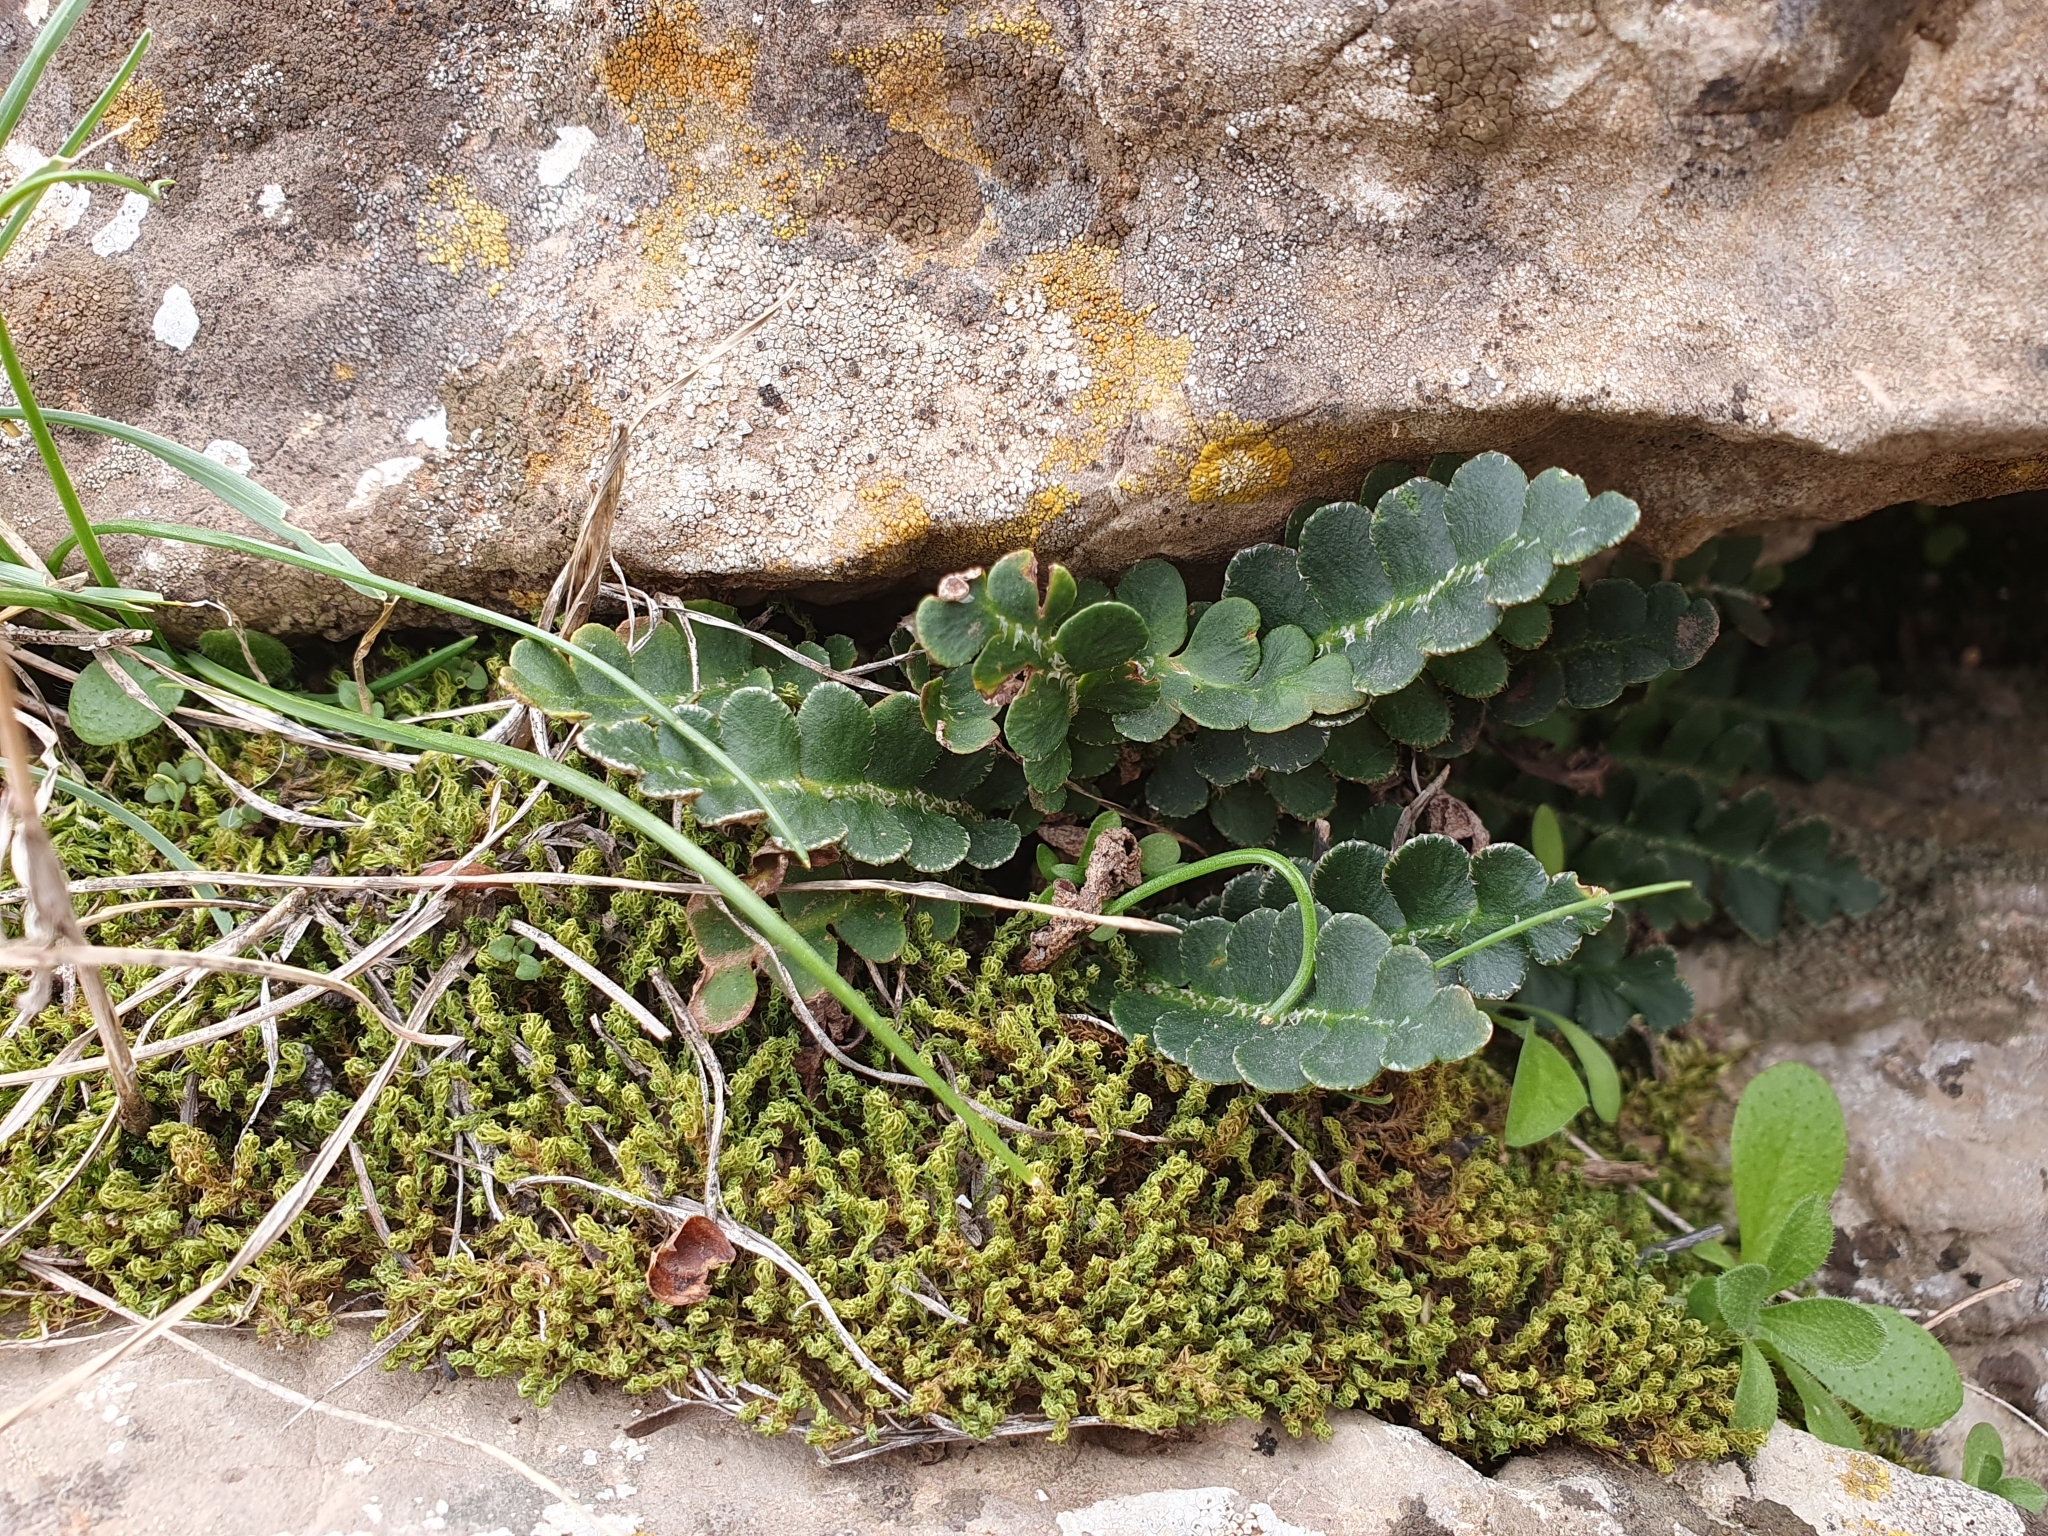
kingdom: Plantae
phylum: Tracheophyta
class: Polypodiopsida
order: Polypodiales
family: Aspleniaceae
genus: Asplenium
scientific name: Asplenium ceterach
